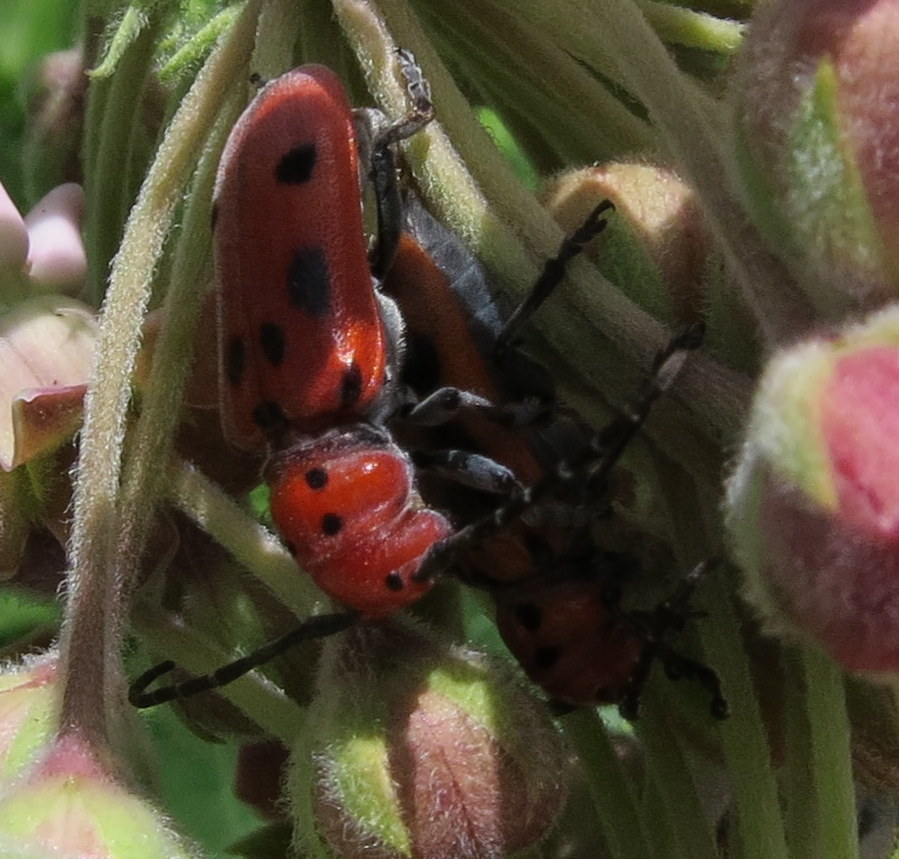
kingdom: Animalia
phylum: Arthropoda
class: Insecta
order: Coleoptera
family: Cerambycidae
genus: Tetraopes
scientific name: Tetraopes tetrophthalmus
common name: Red milkweed beetle
